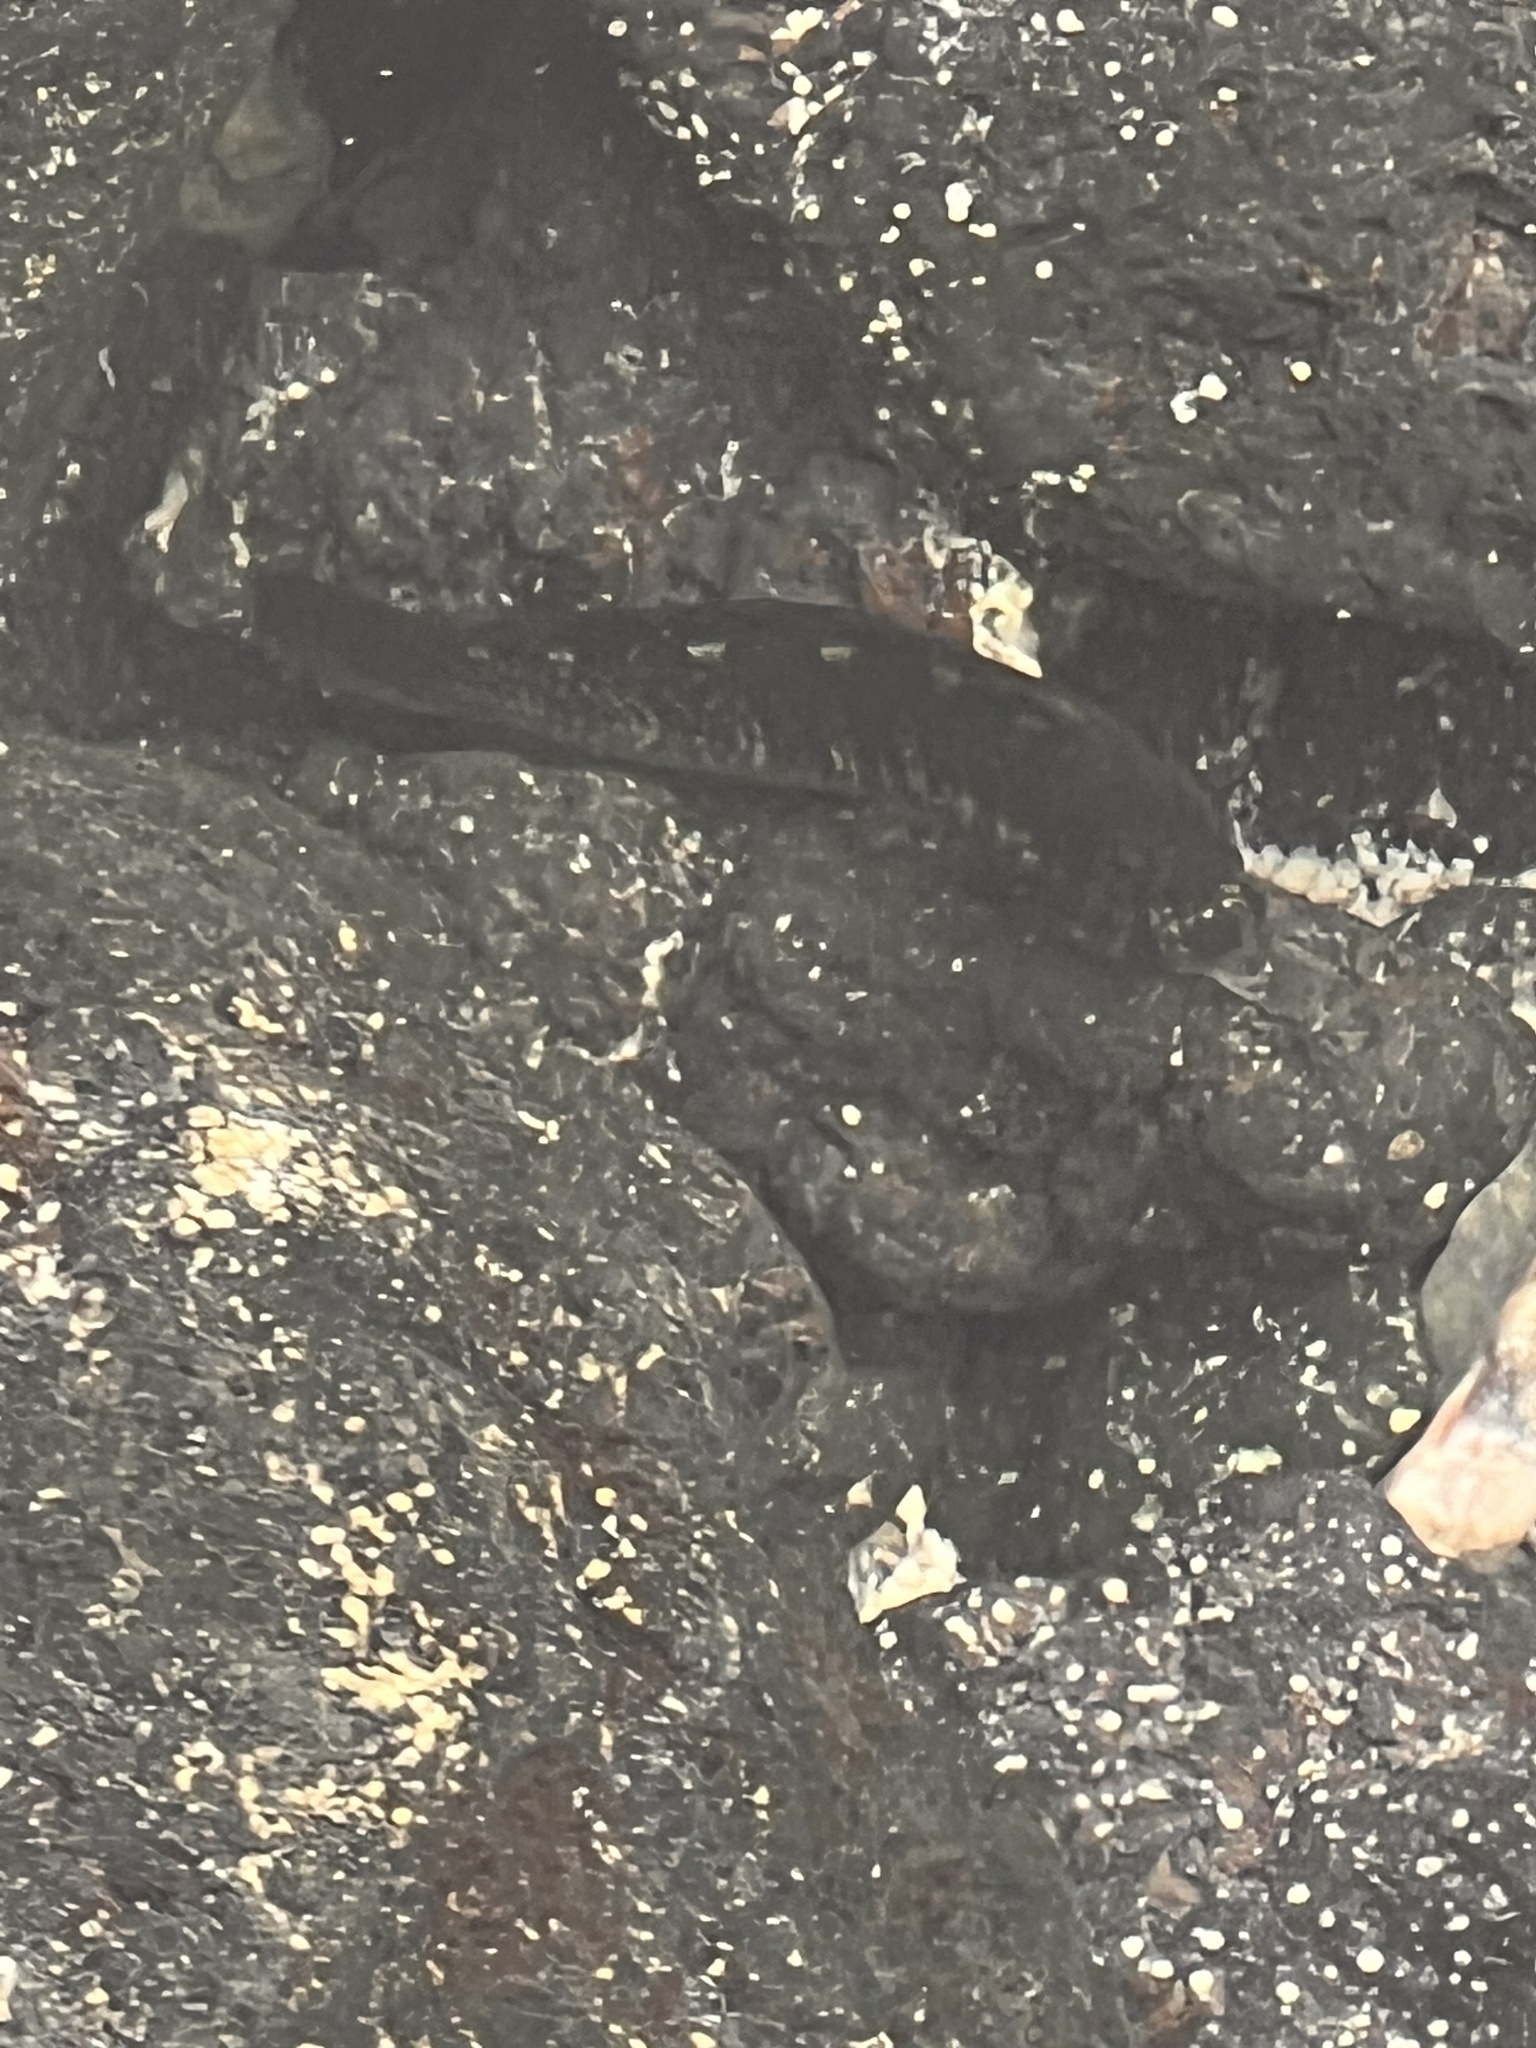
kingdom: Animalia
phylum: Chordata
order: Perciformes
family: Blenniidae
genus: Istiblennius
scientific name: Istiblennius zebra
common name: Zebra blenny
